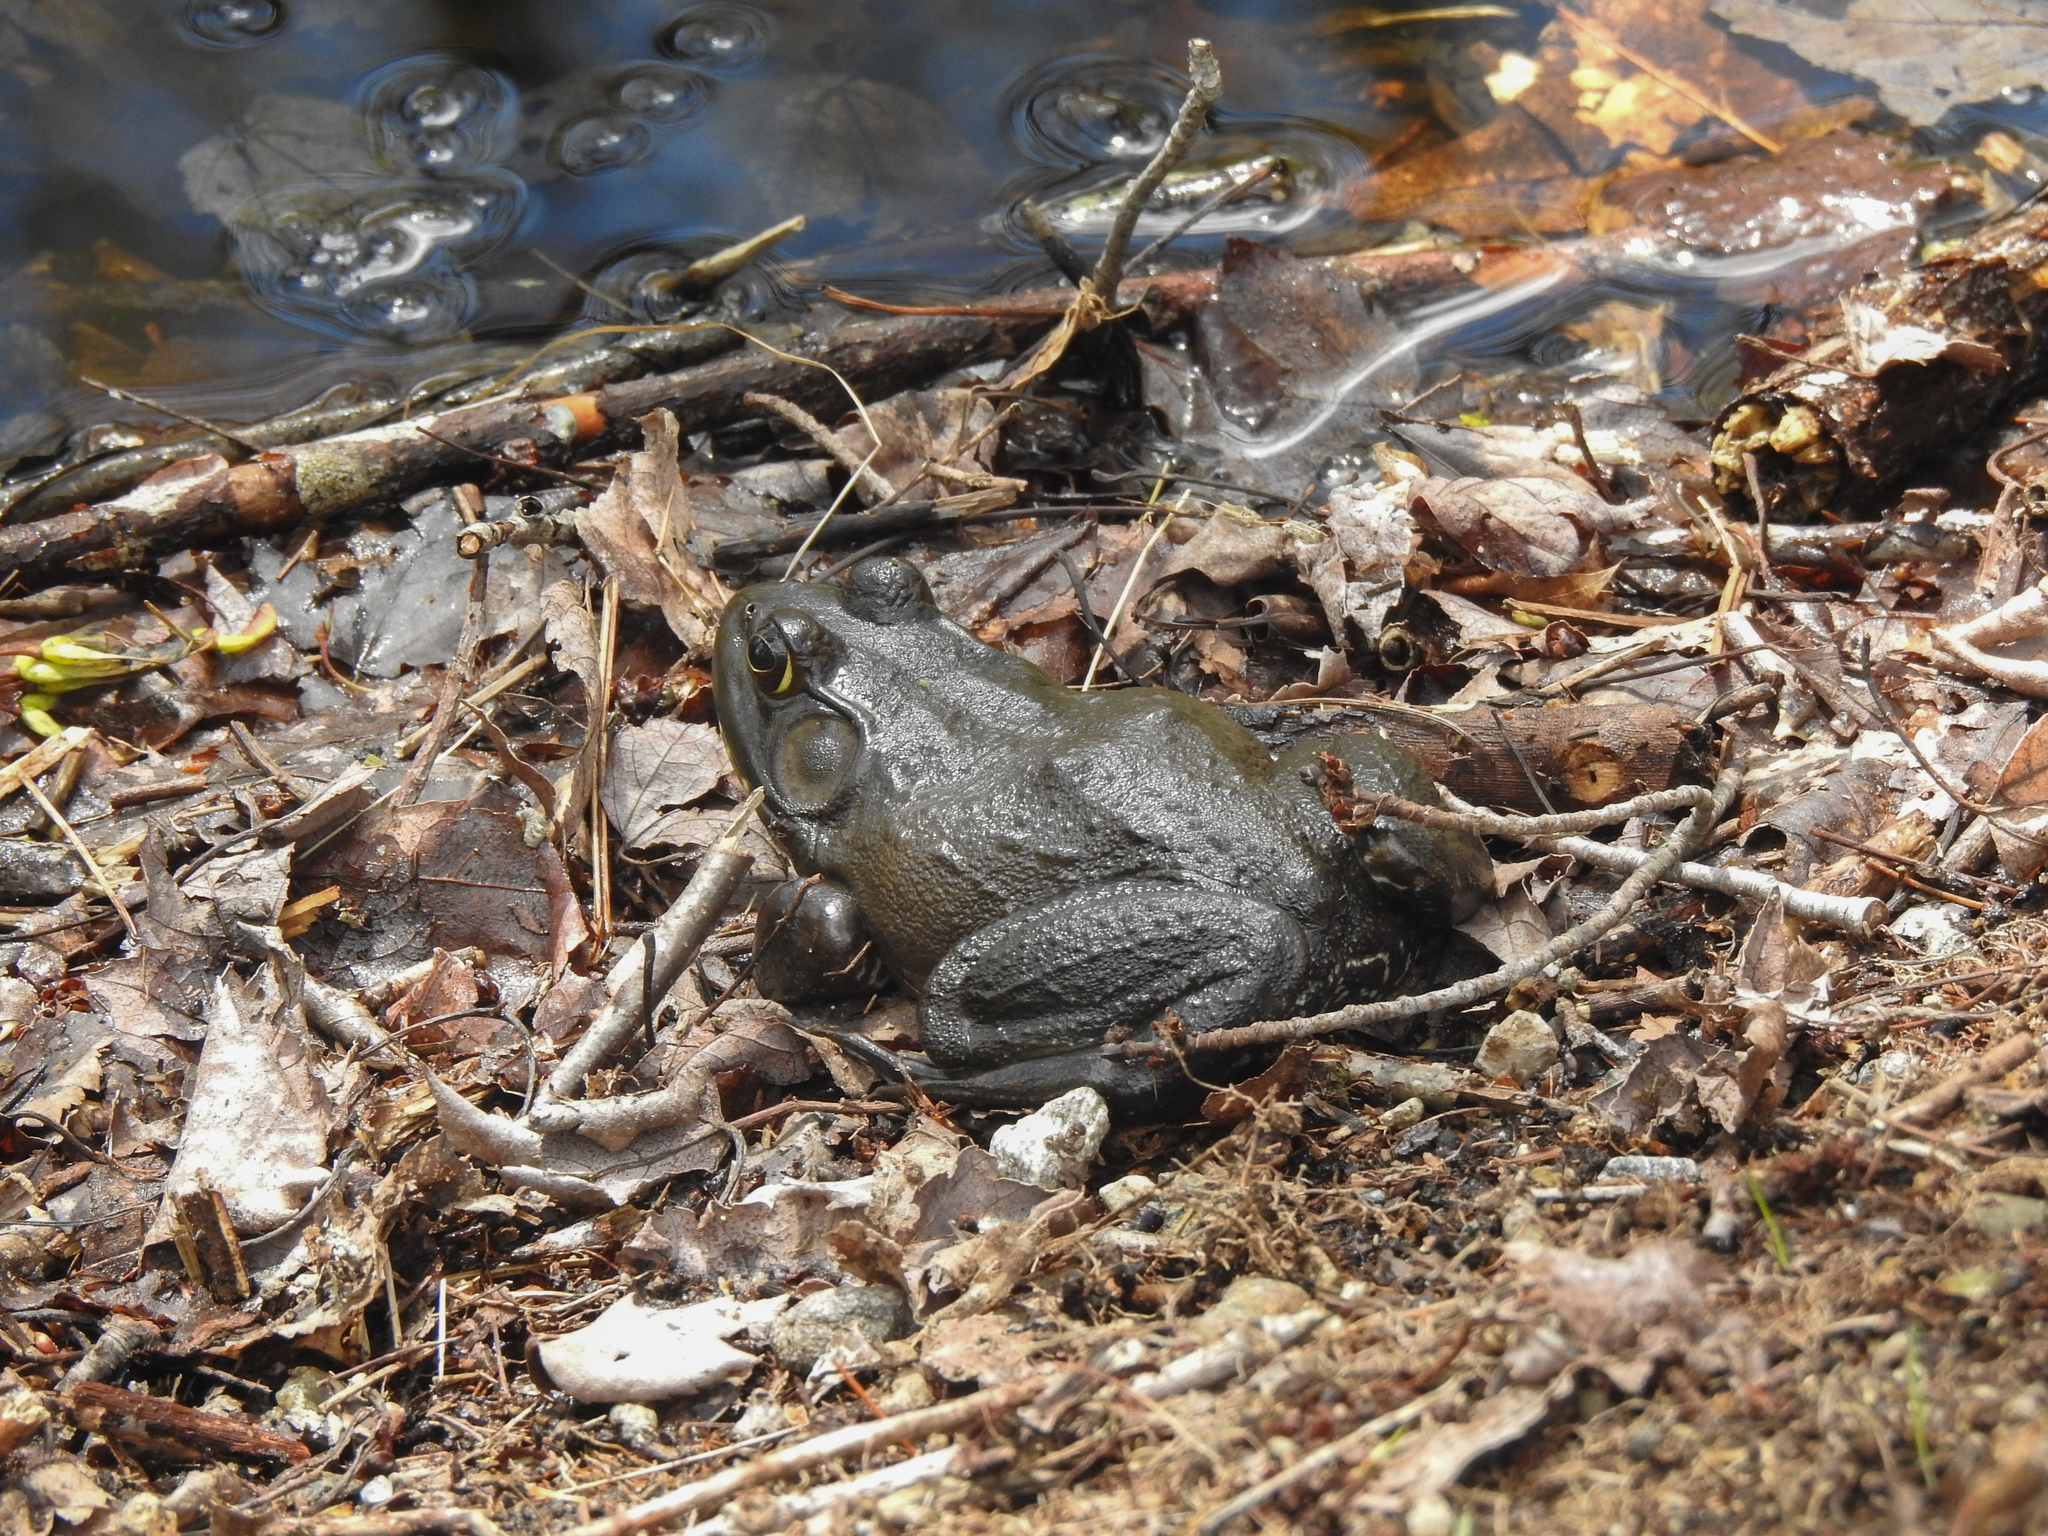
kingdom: Animalia
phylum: Chordata
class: Amphibia
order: Anura
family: Ranidae
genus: Lithobates
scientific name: Lithobates catesbeianus
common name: American bullfrog
